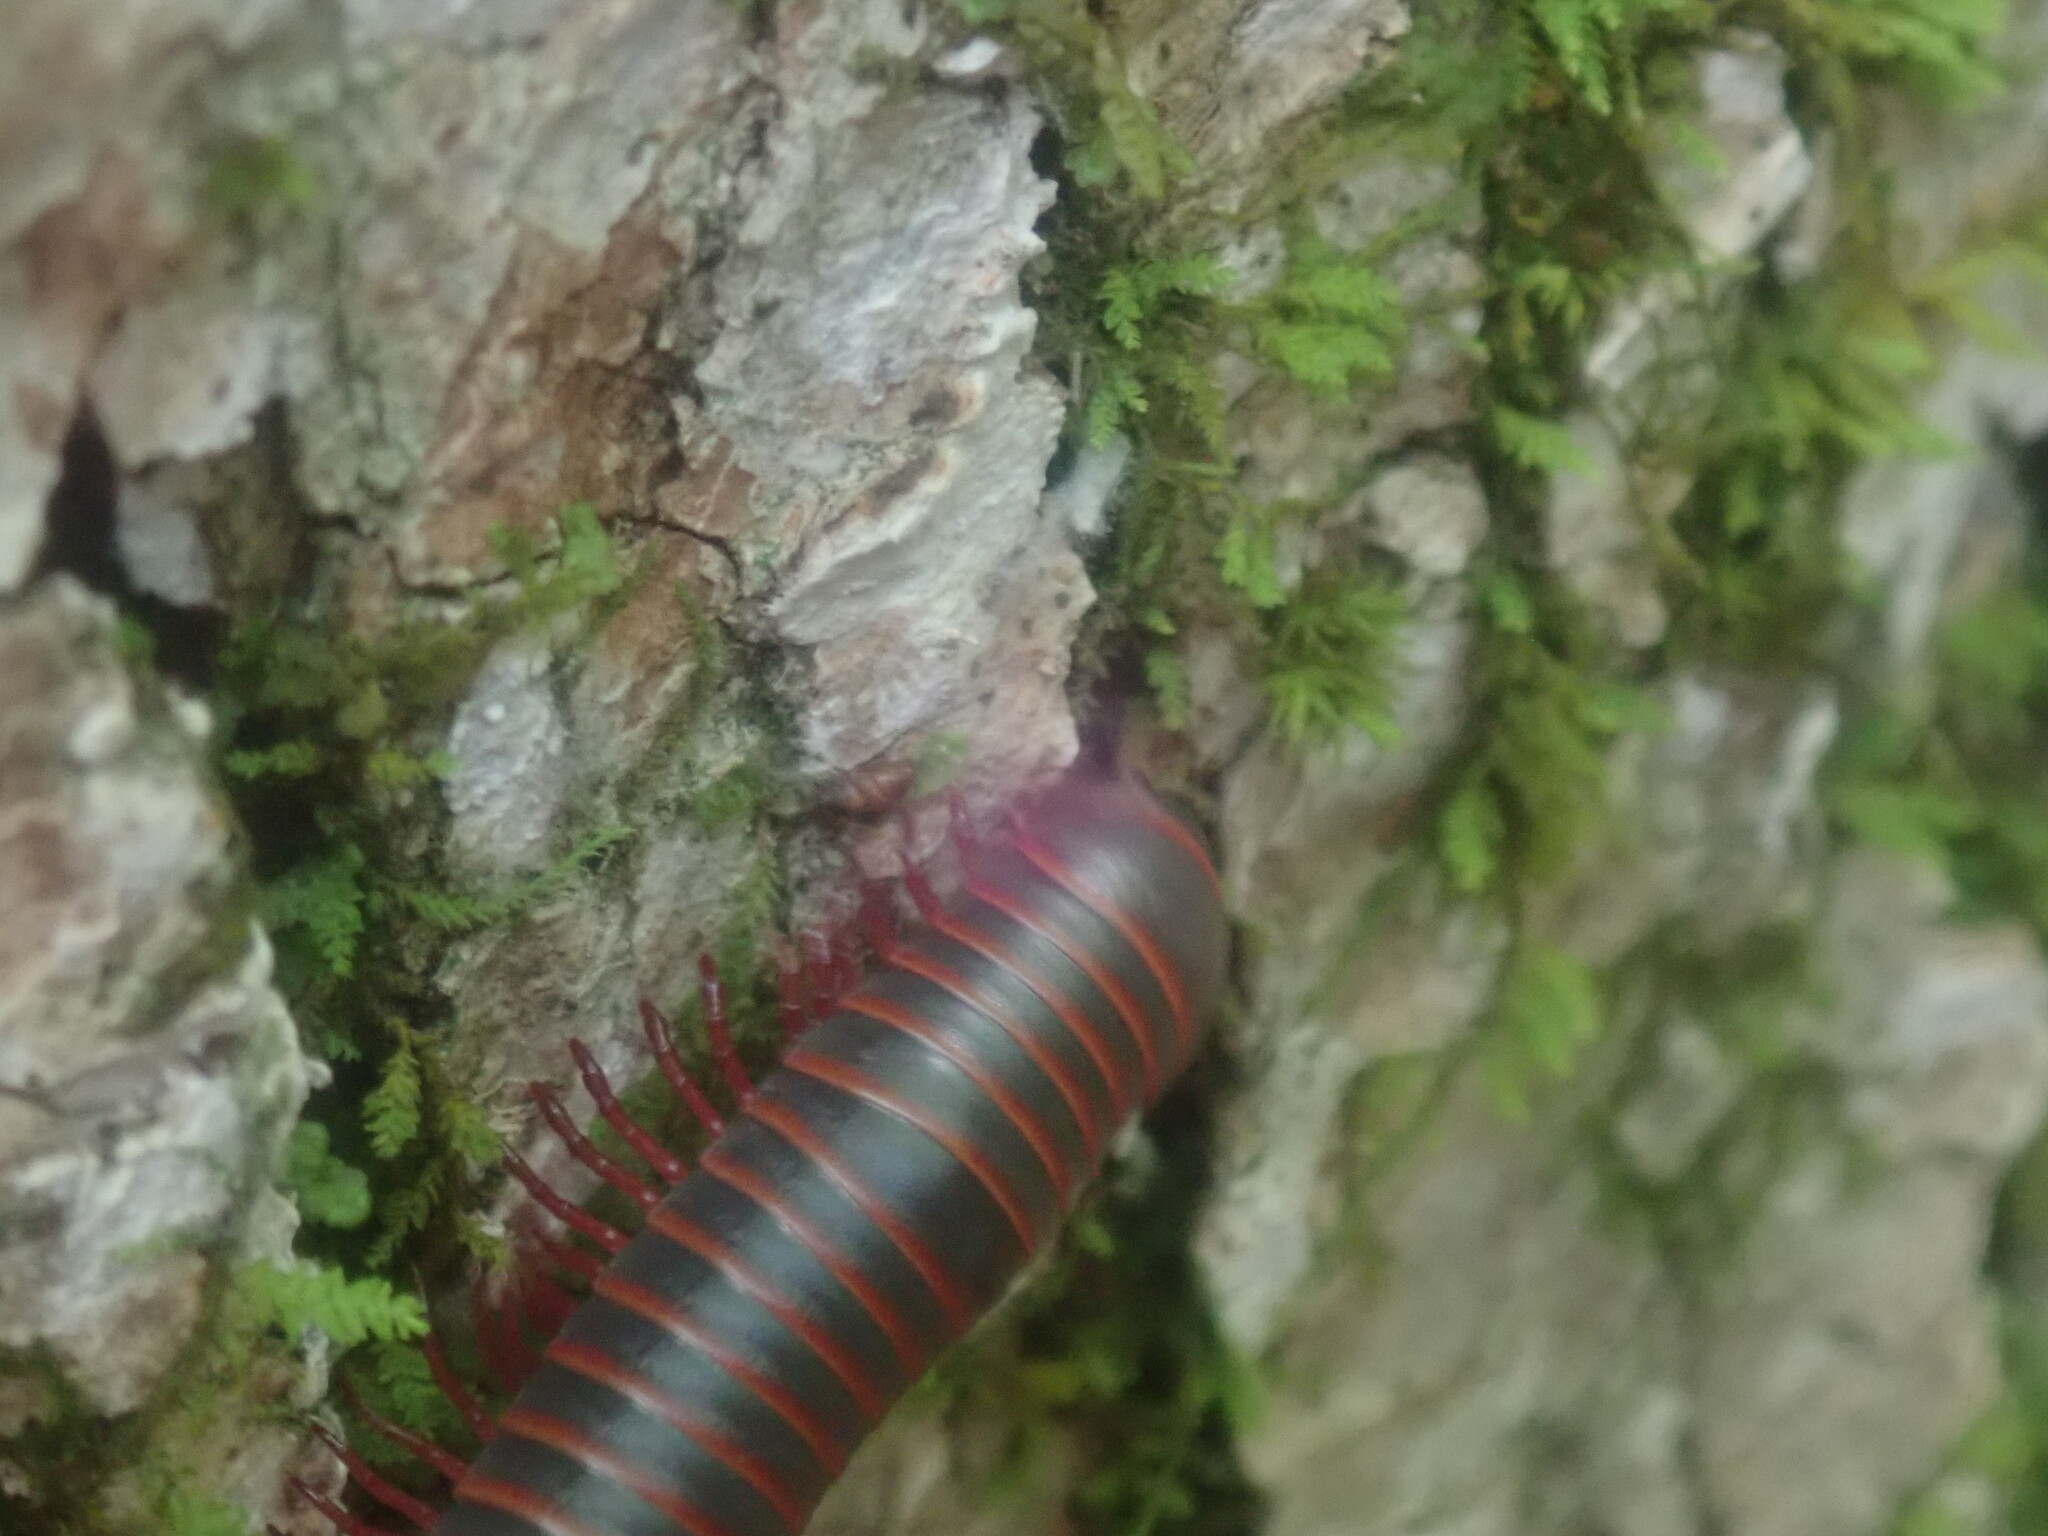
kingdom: Animalia
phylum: Arthropoda
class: Diplopoda
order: Spirobolida
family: Spirobolidae
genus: Narceus
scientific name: Narceus americanus
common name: American giant millipede
